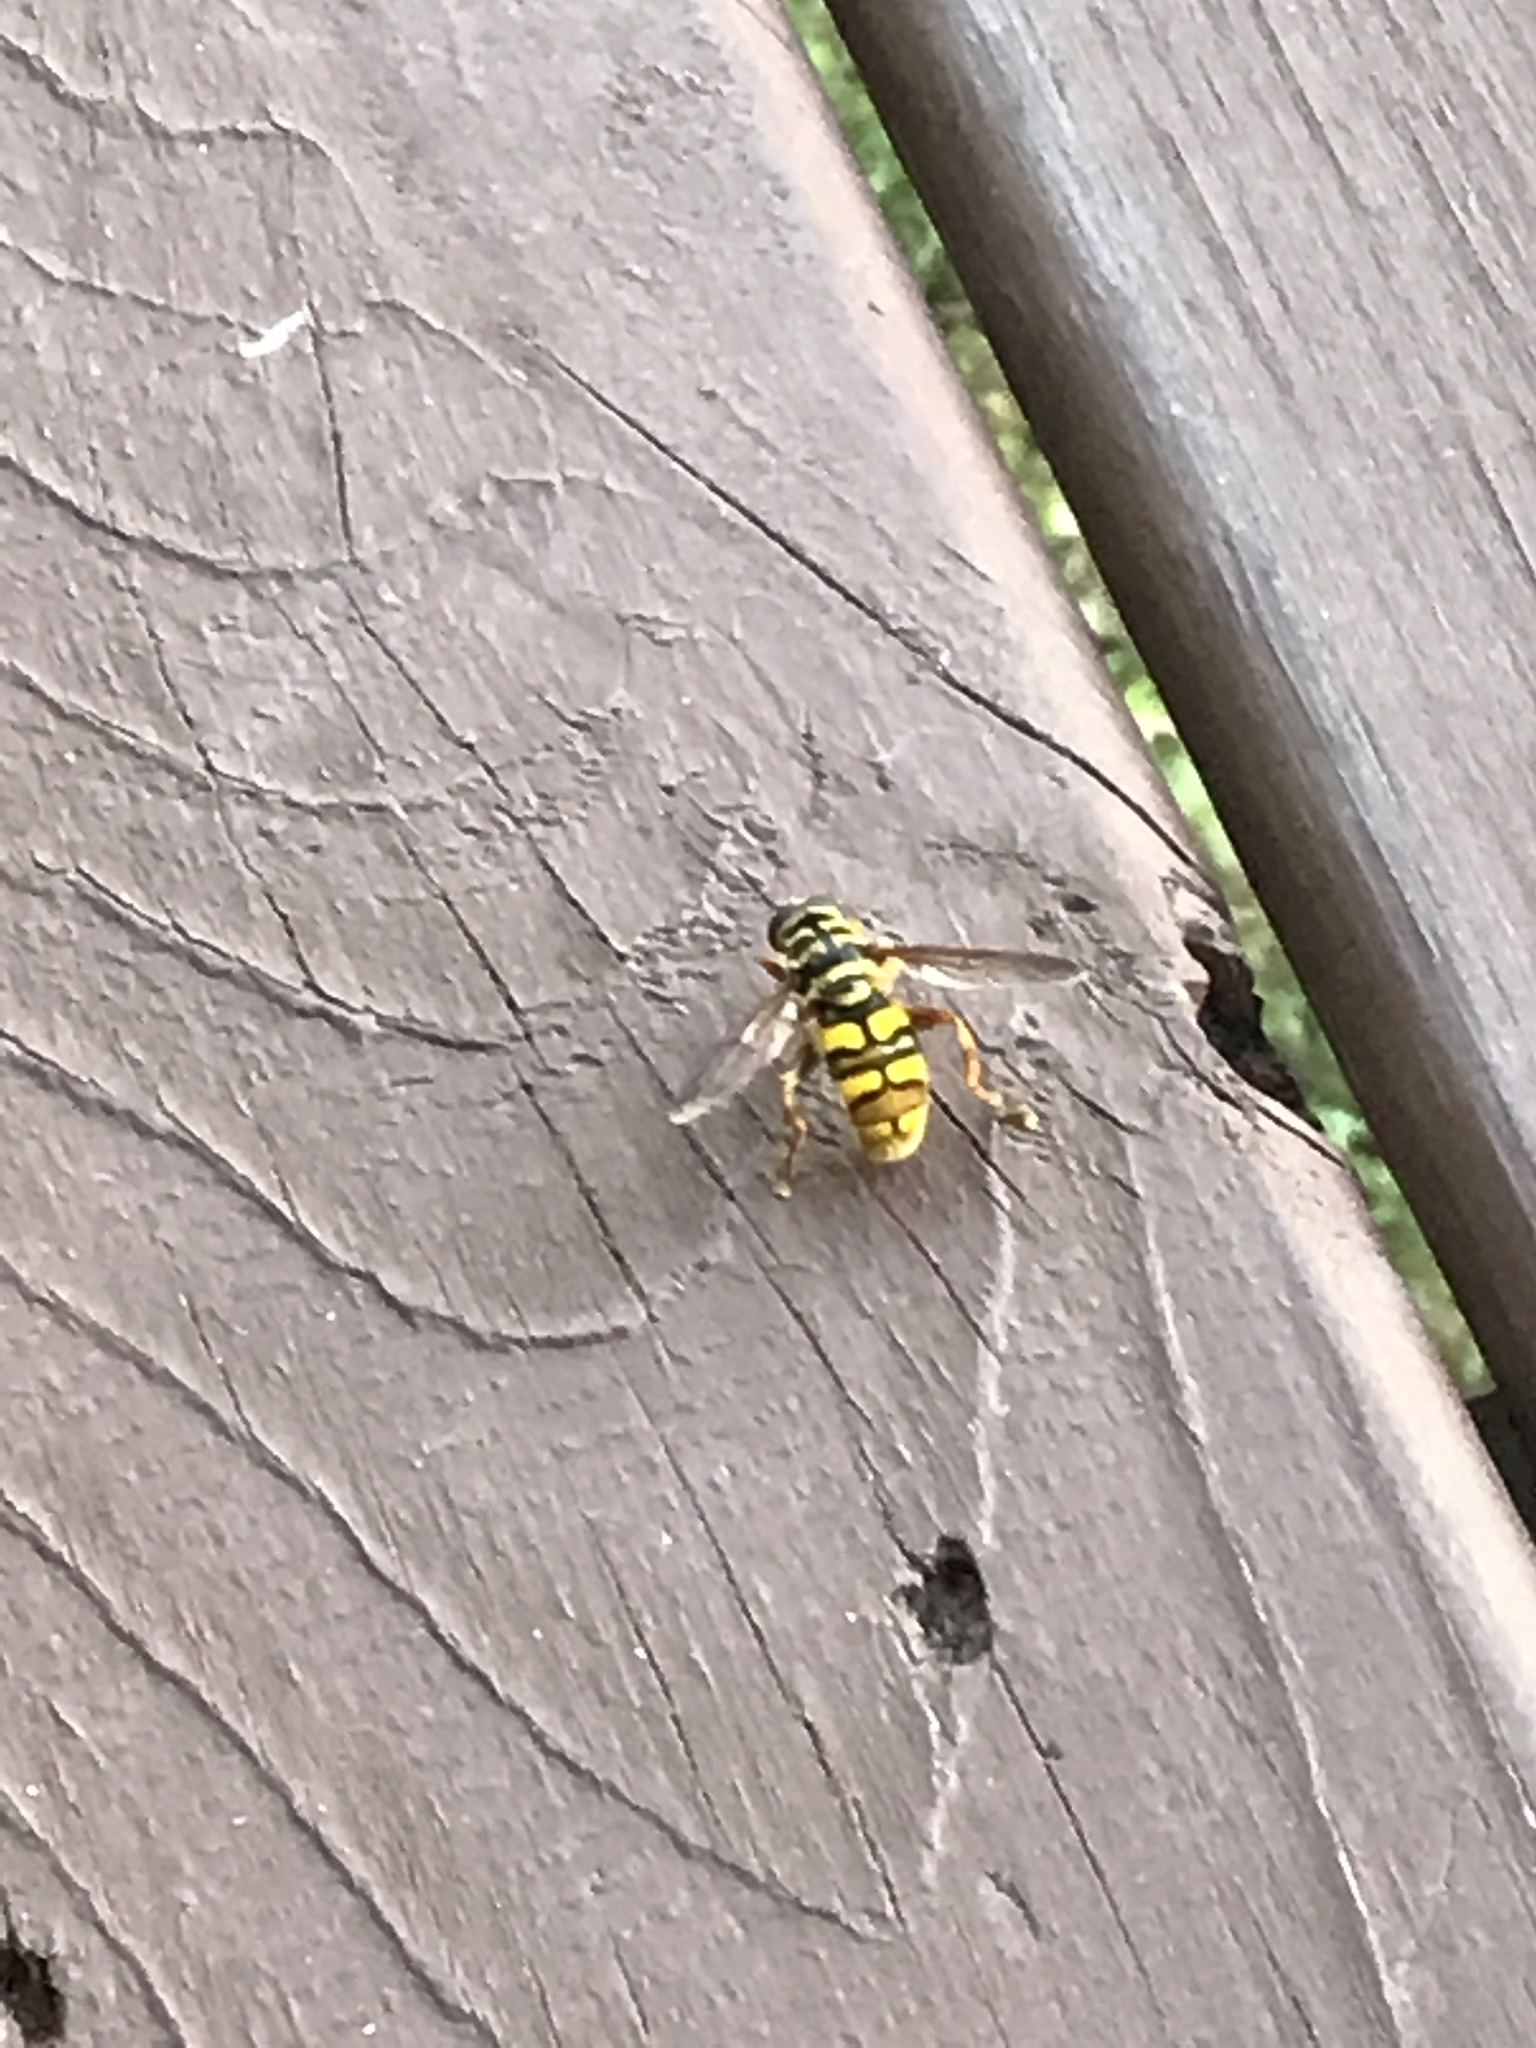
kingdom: Animalia
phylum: Arthropoda
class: Insecta
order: Diptera
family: Syrphidae
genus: Milesia
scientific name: Milesia virginiensis
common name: Virginia giant
